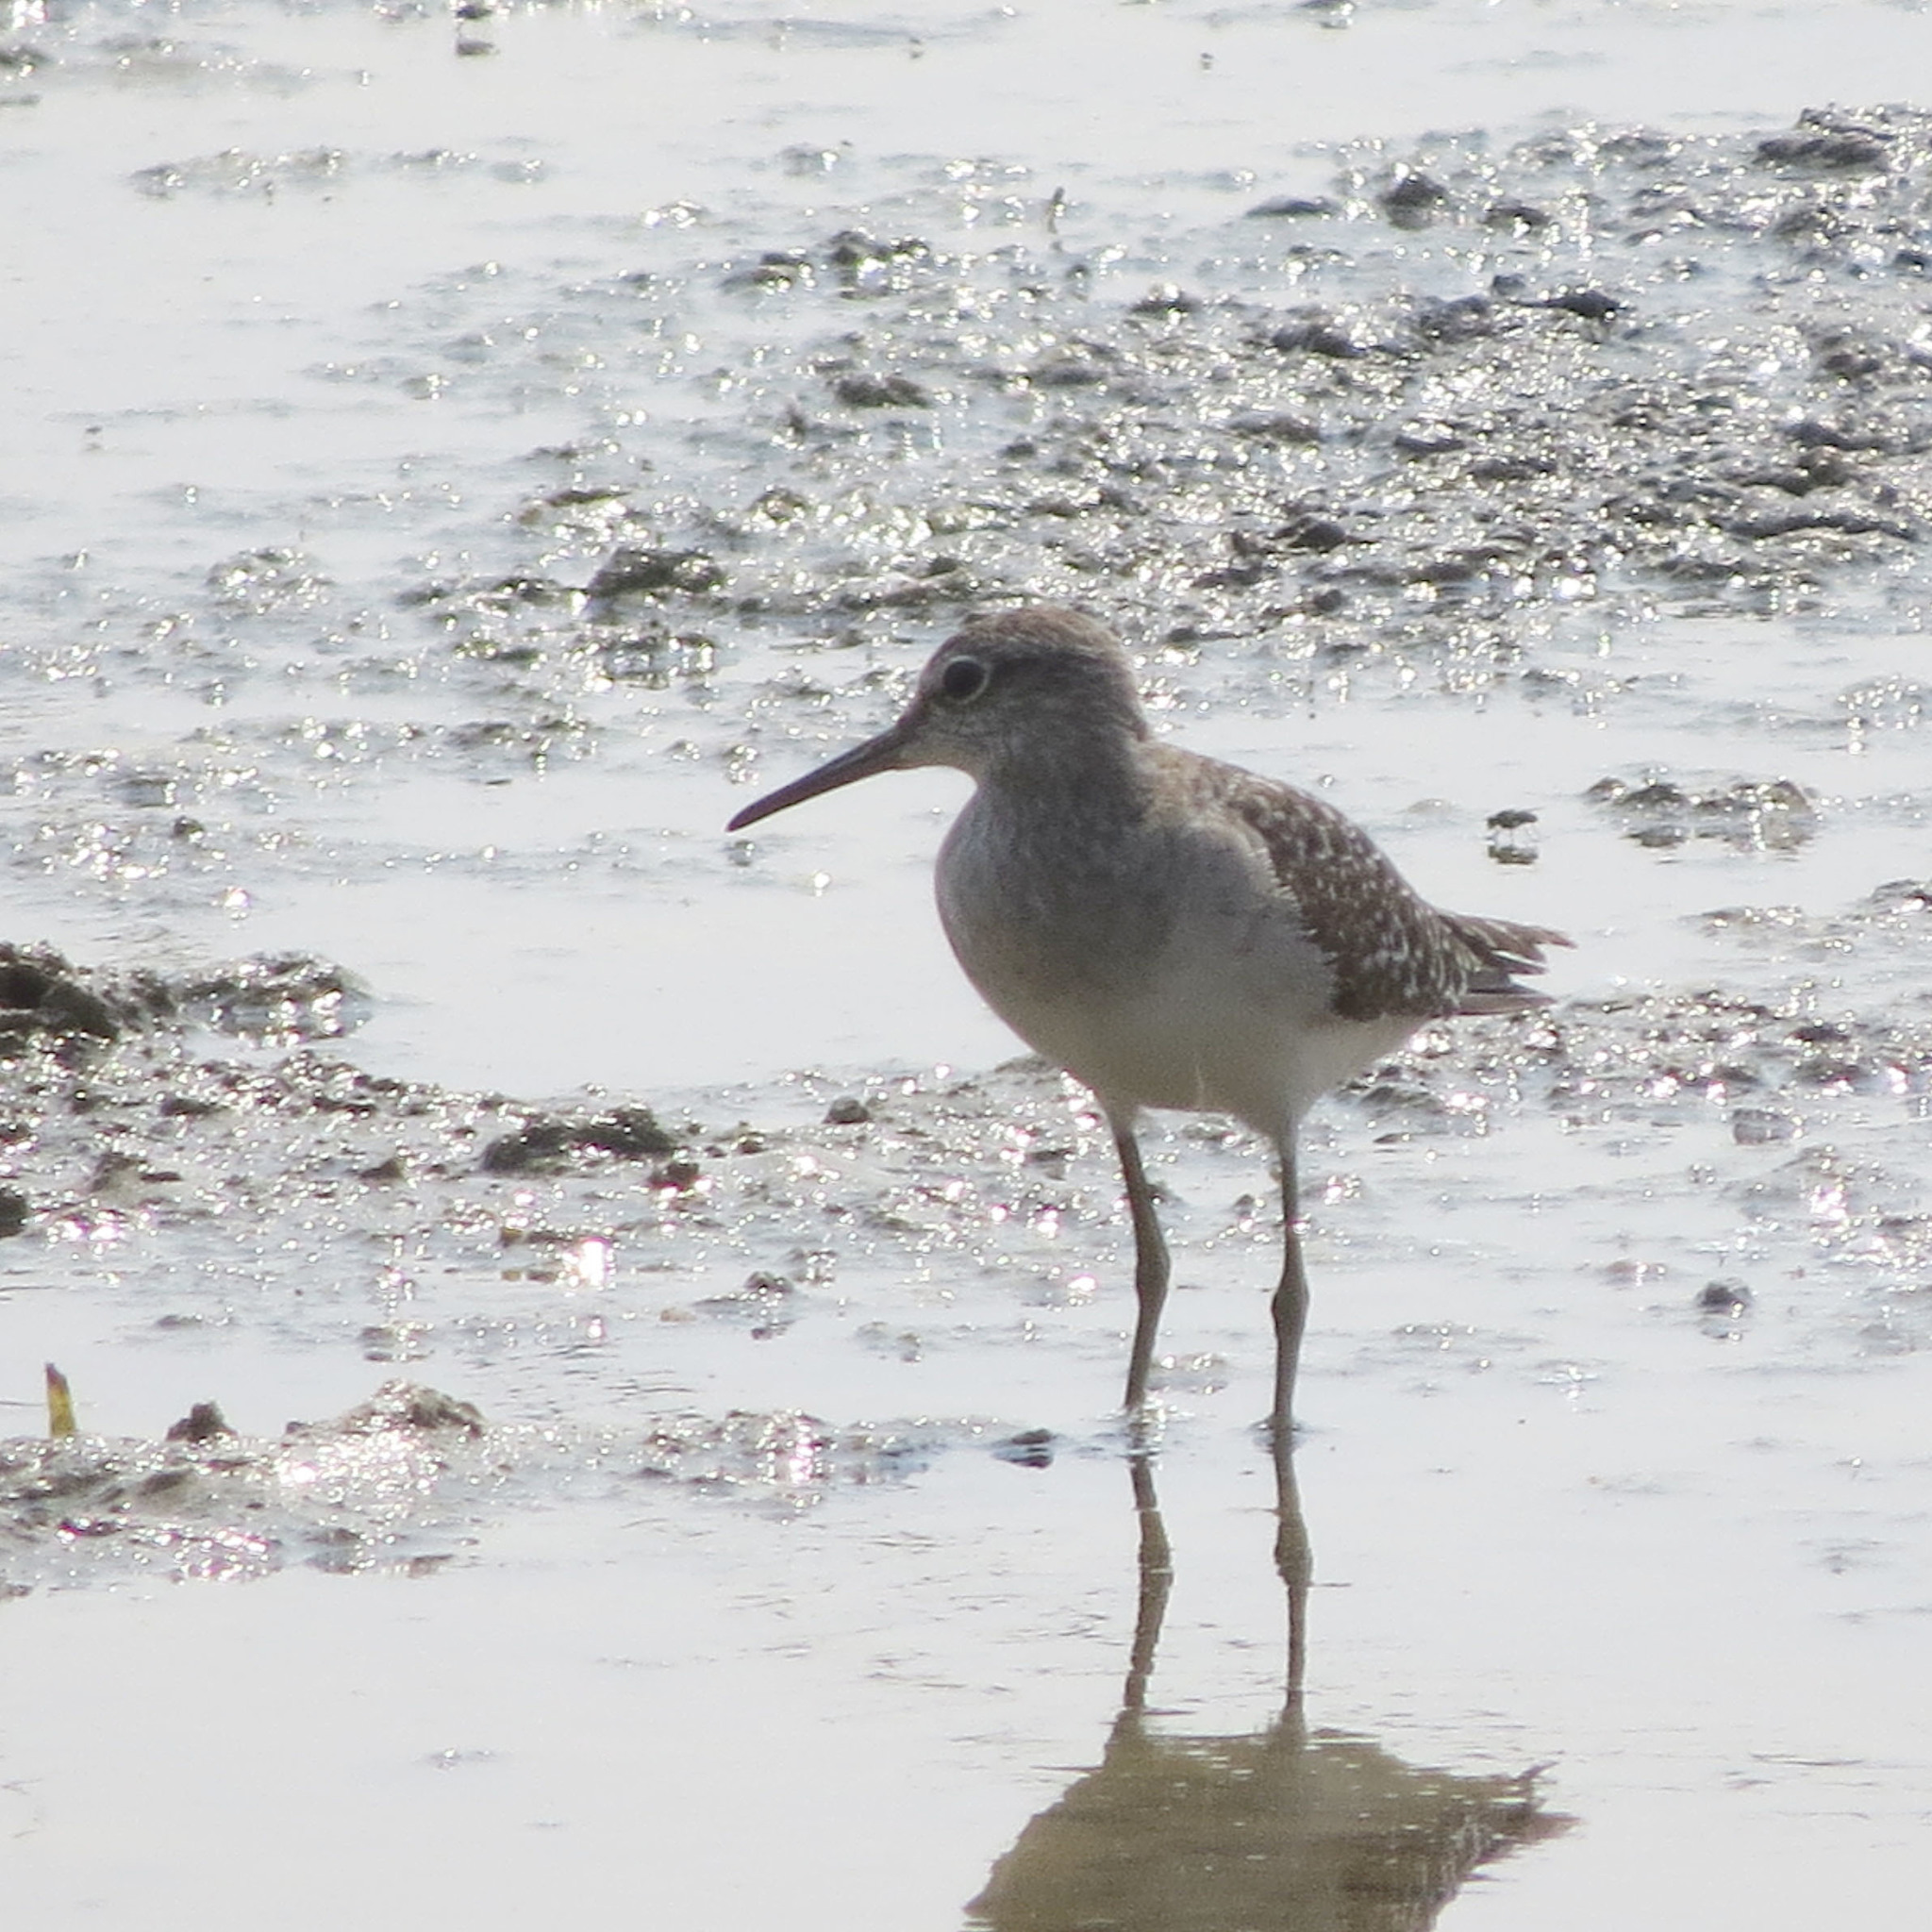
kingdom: Animalia
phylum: Chordata
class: Aves
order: Charadriiformes
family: Scolopacidae
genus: Tringa
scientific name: Tringa glareola
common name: Wood sandpiper
